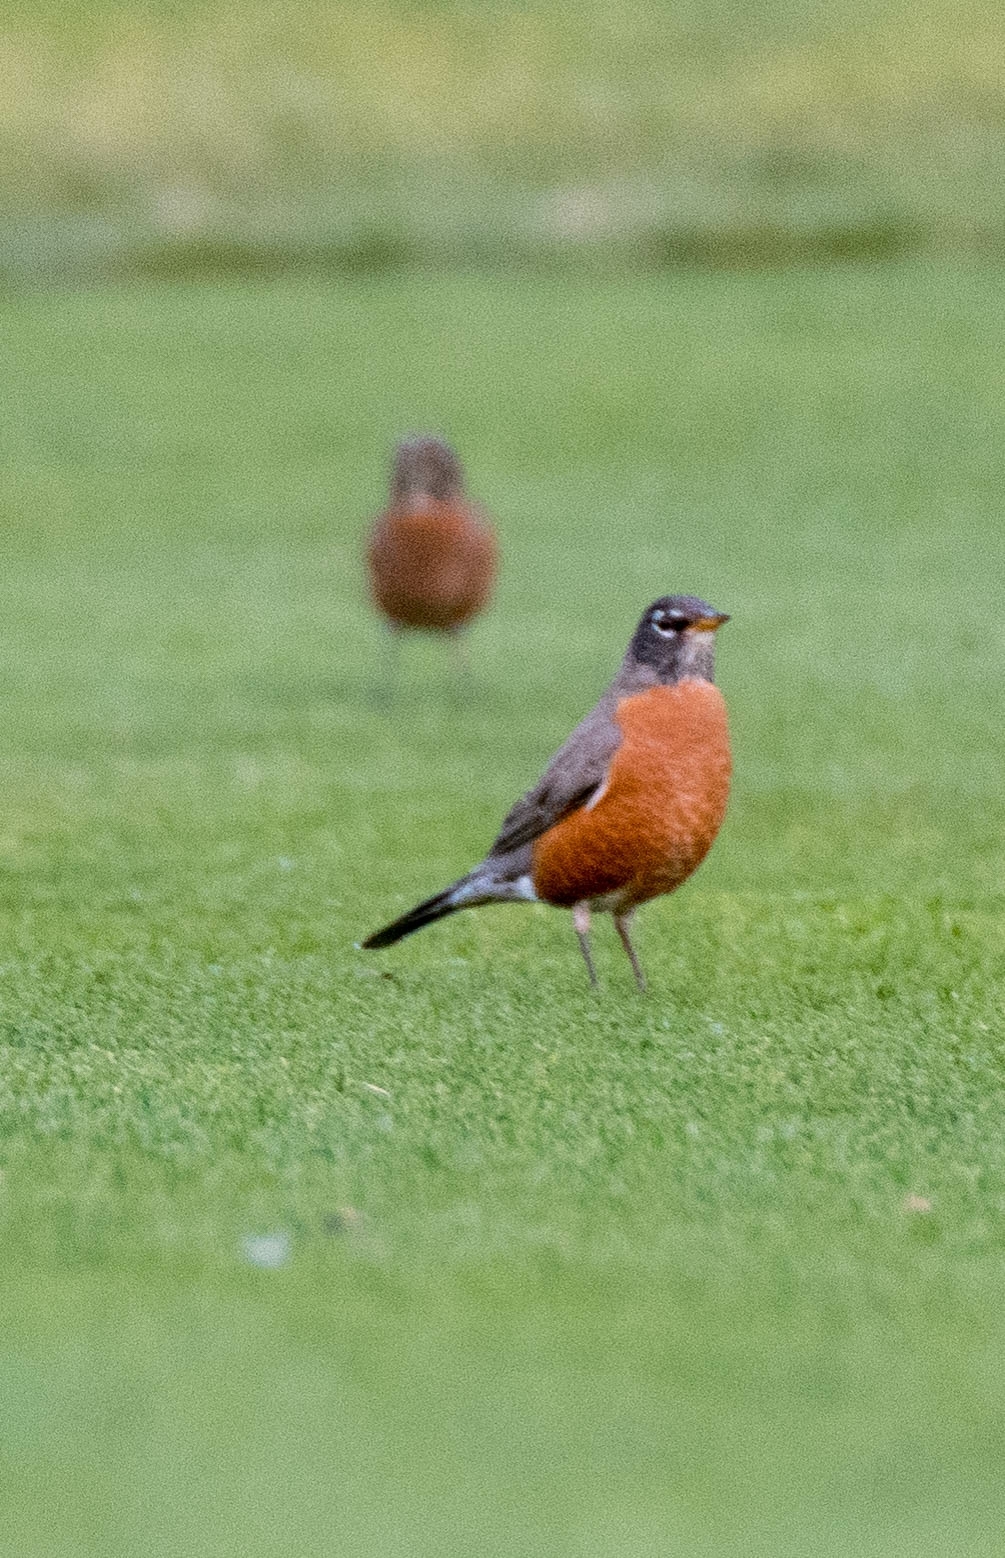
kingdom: Animalia
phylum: Chordata
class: Aves
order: Passeriformes
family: Turdidae
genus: Turdus
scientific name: Turdus migratorius
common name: American robin
